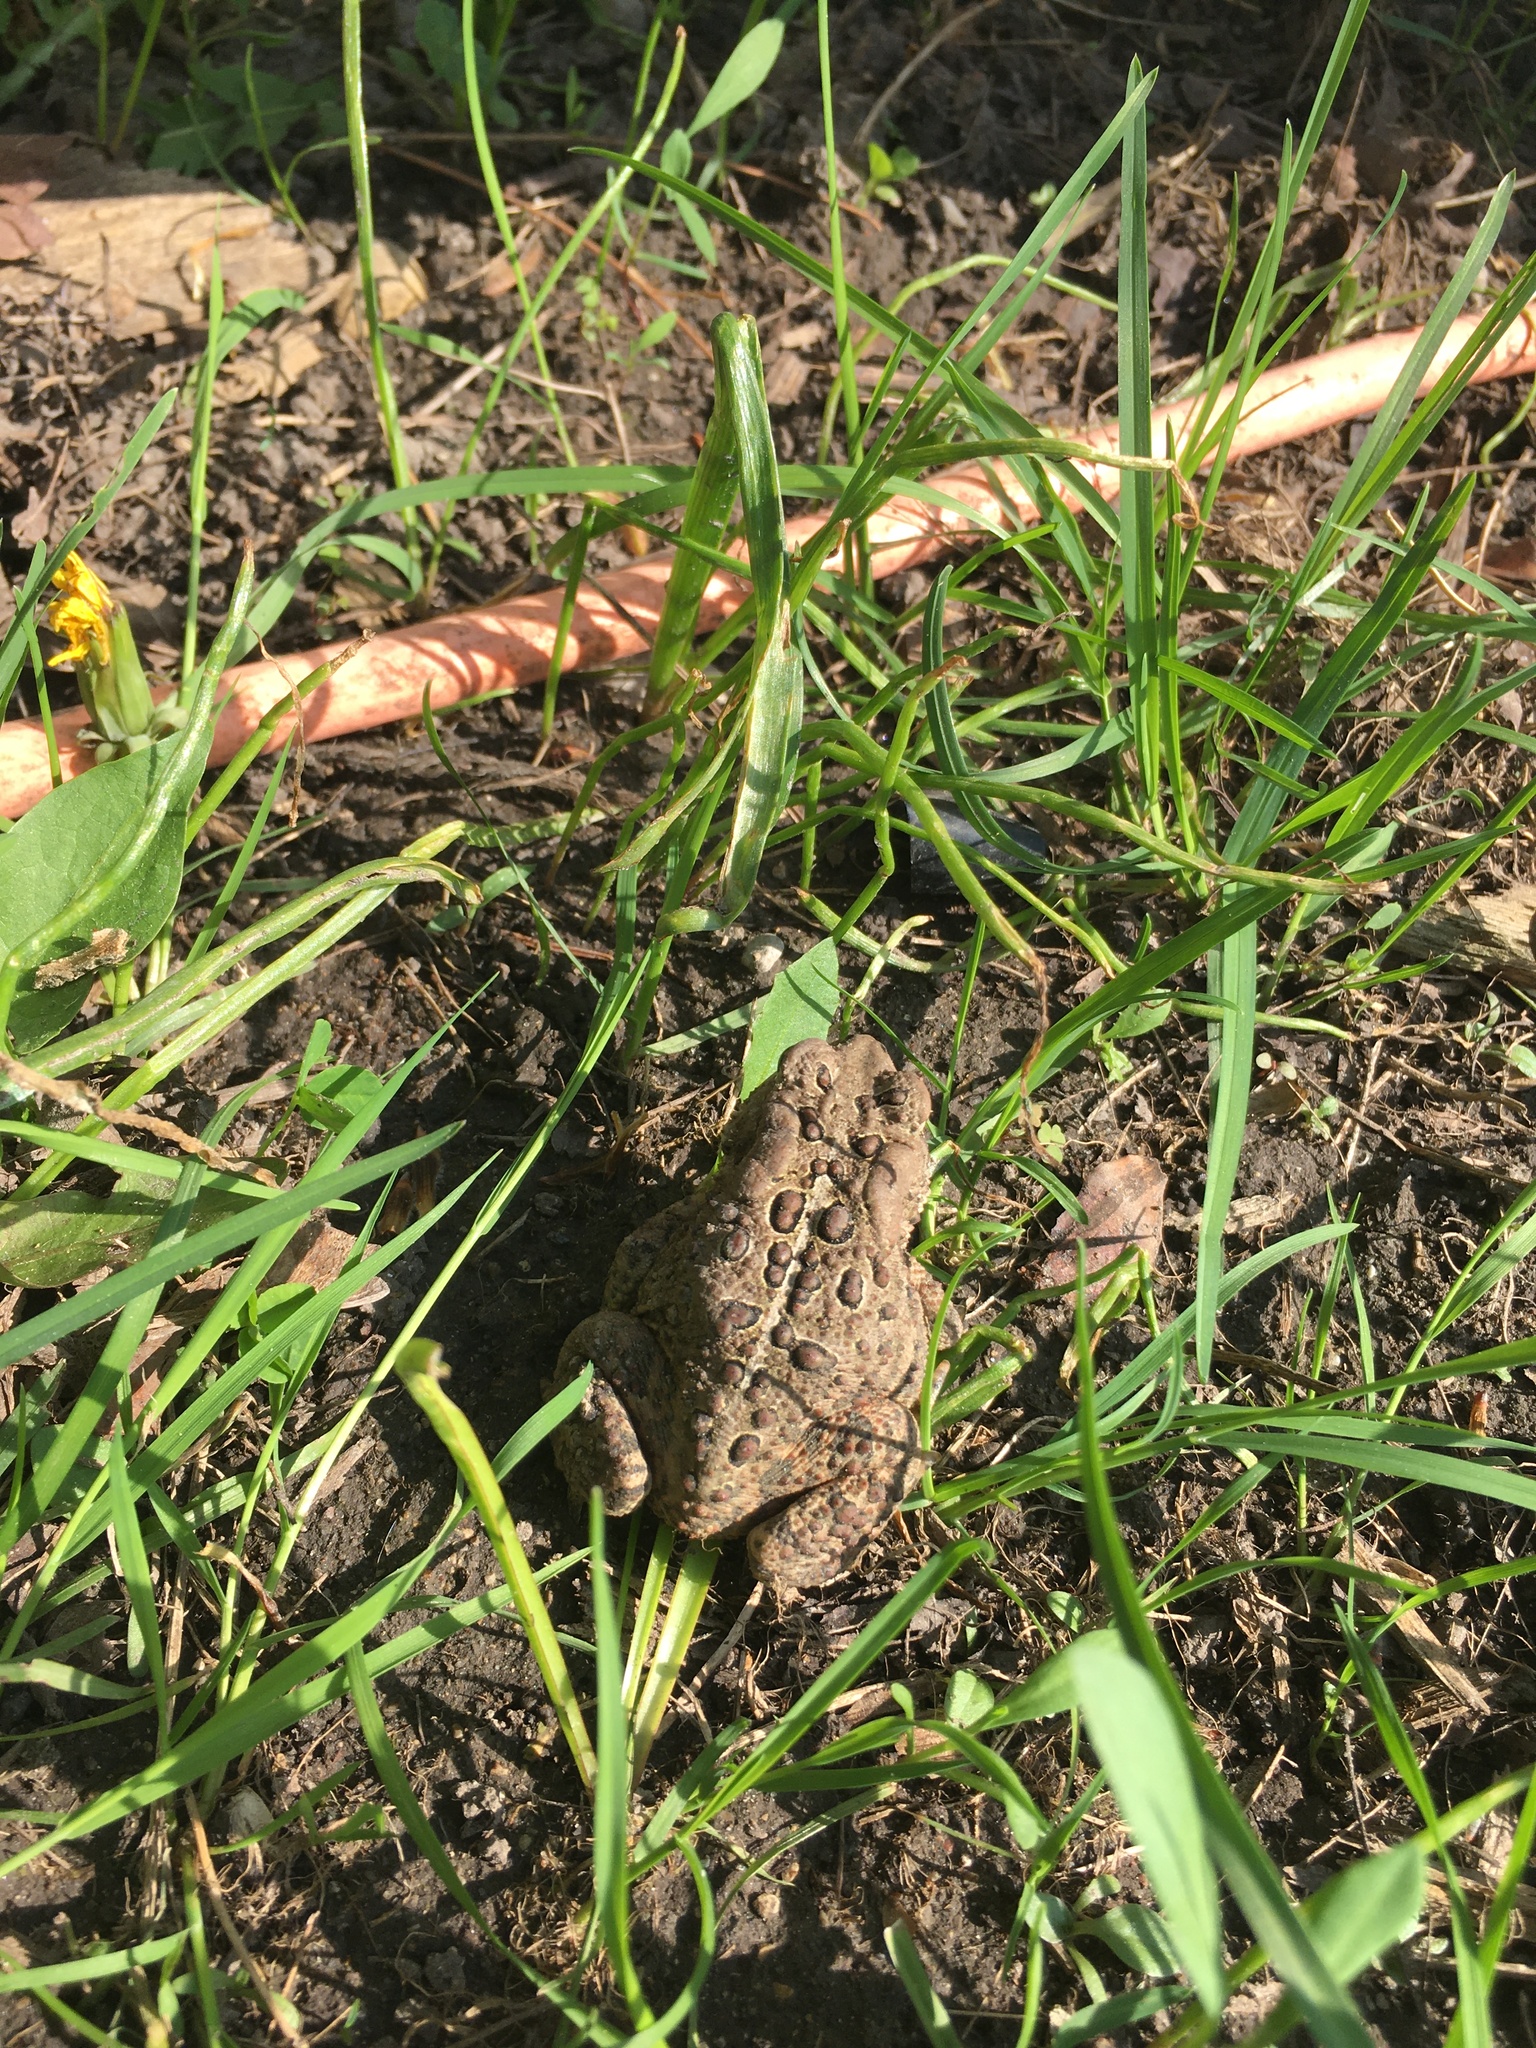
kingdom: Animalia
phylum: Chordata
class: Amphibia
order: Anura
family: Bufonidae
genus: Anaxyrus
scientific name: Anaxyrus americanus
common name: American toad
